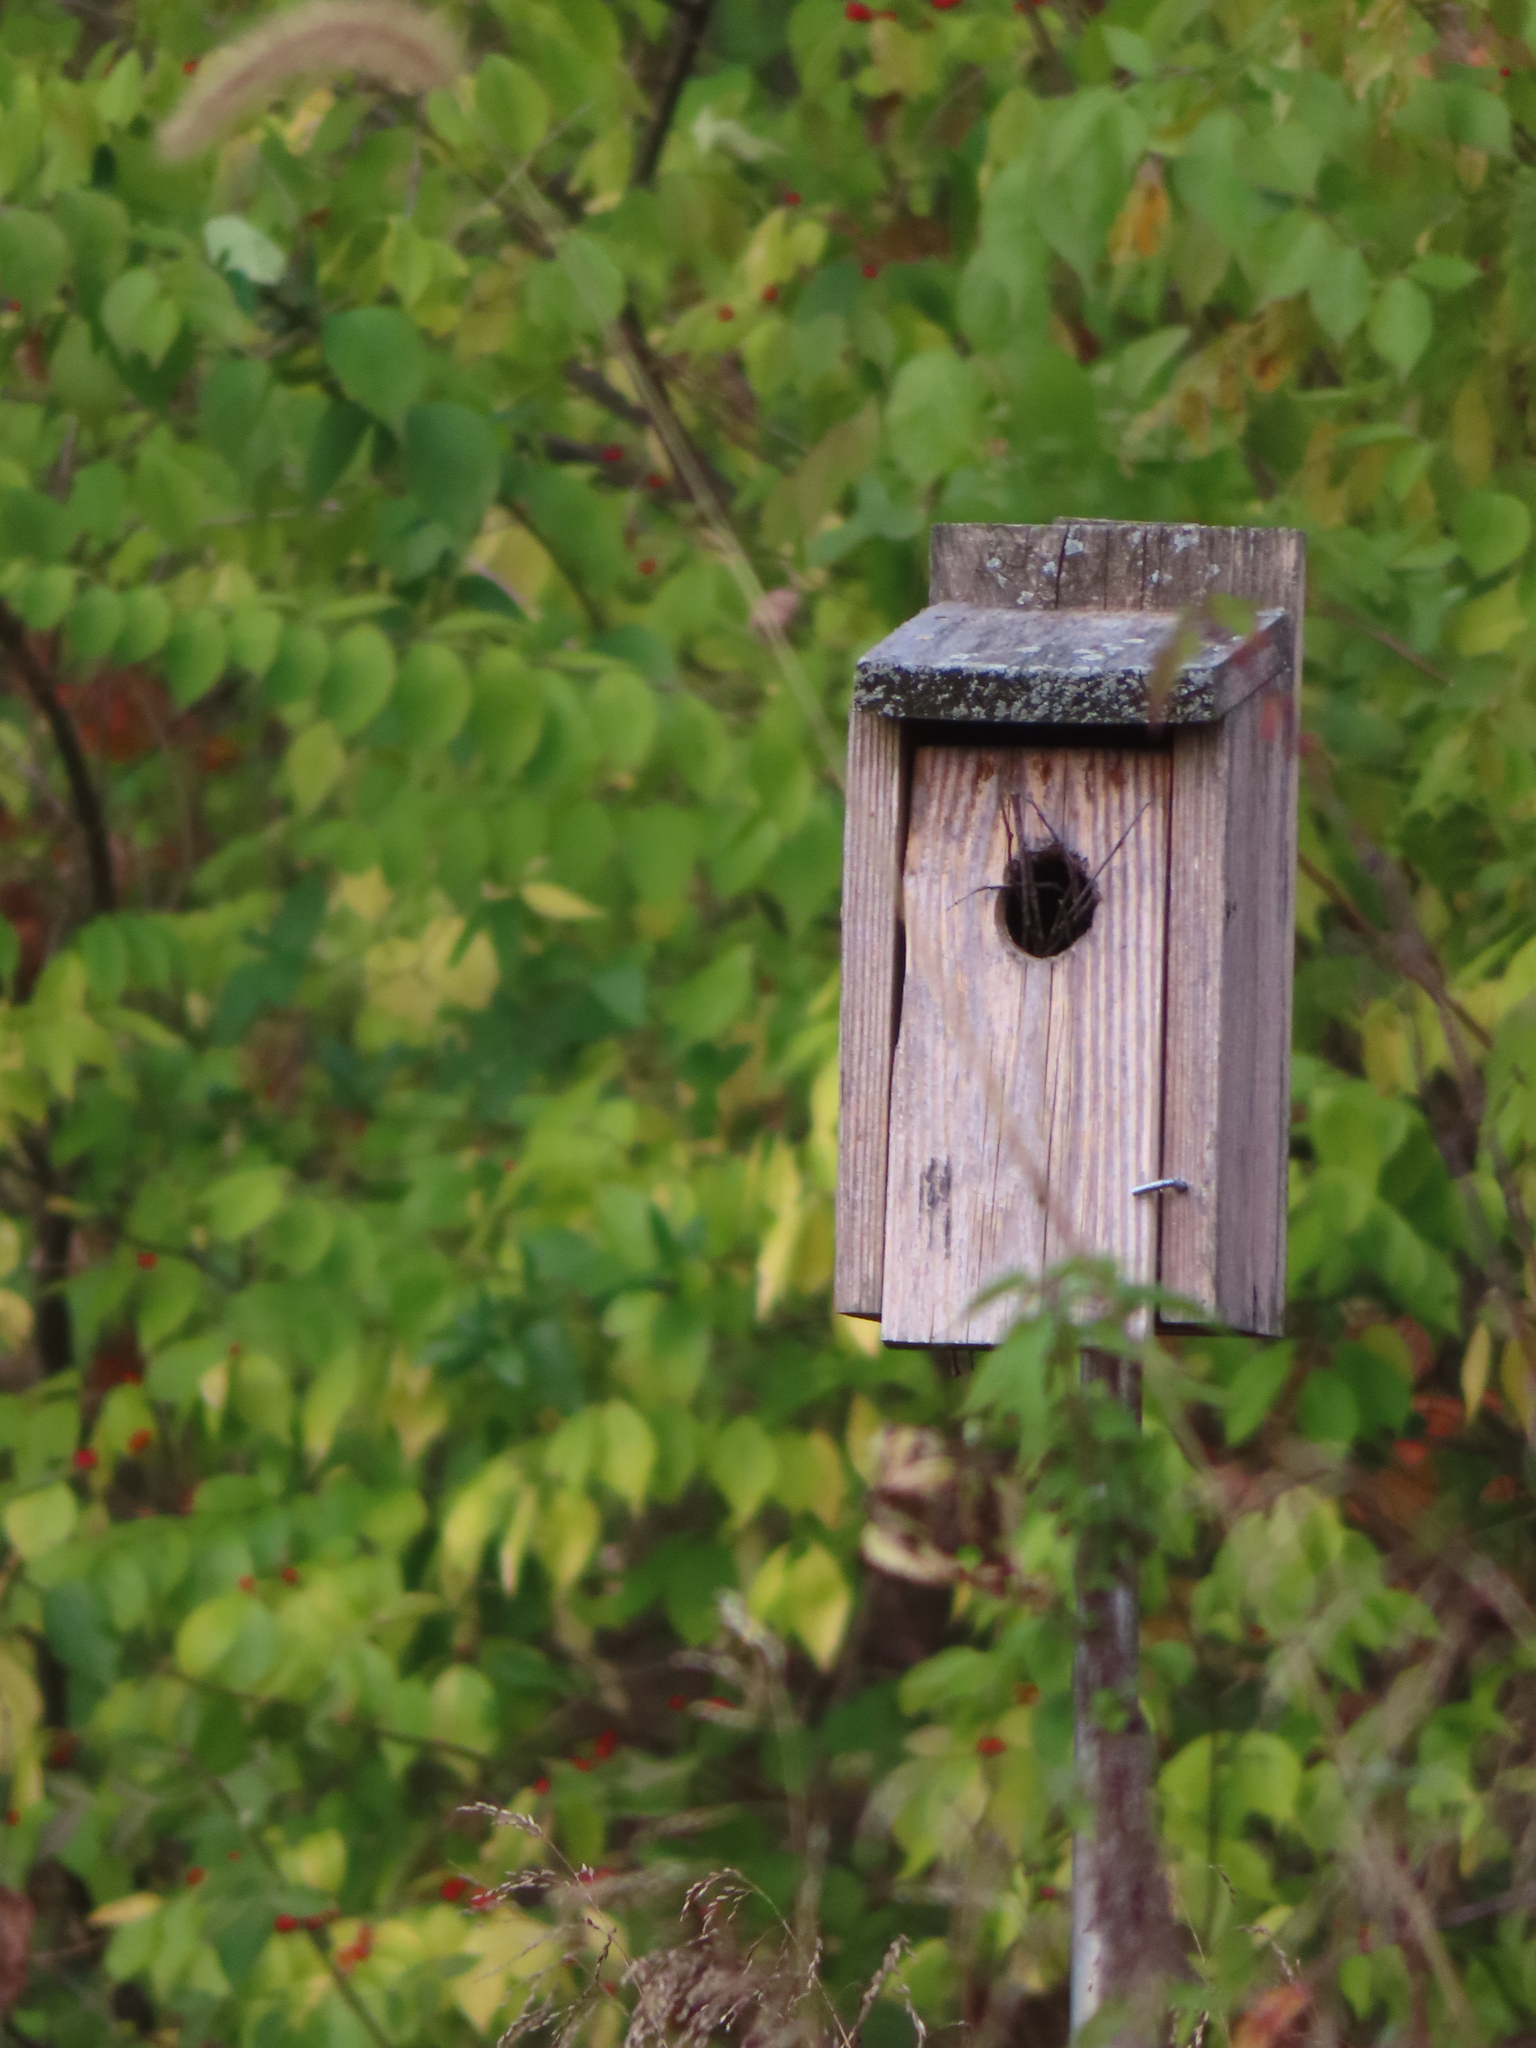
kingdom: Animalia
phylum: Chordata
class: Aves
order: Passeriformes
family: Troglodytidae
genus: Troglodytes
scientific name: Troglodytes aedon
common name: House wren
